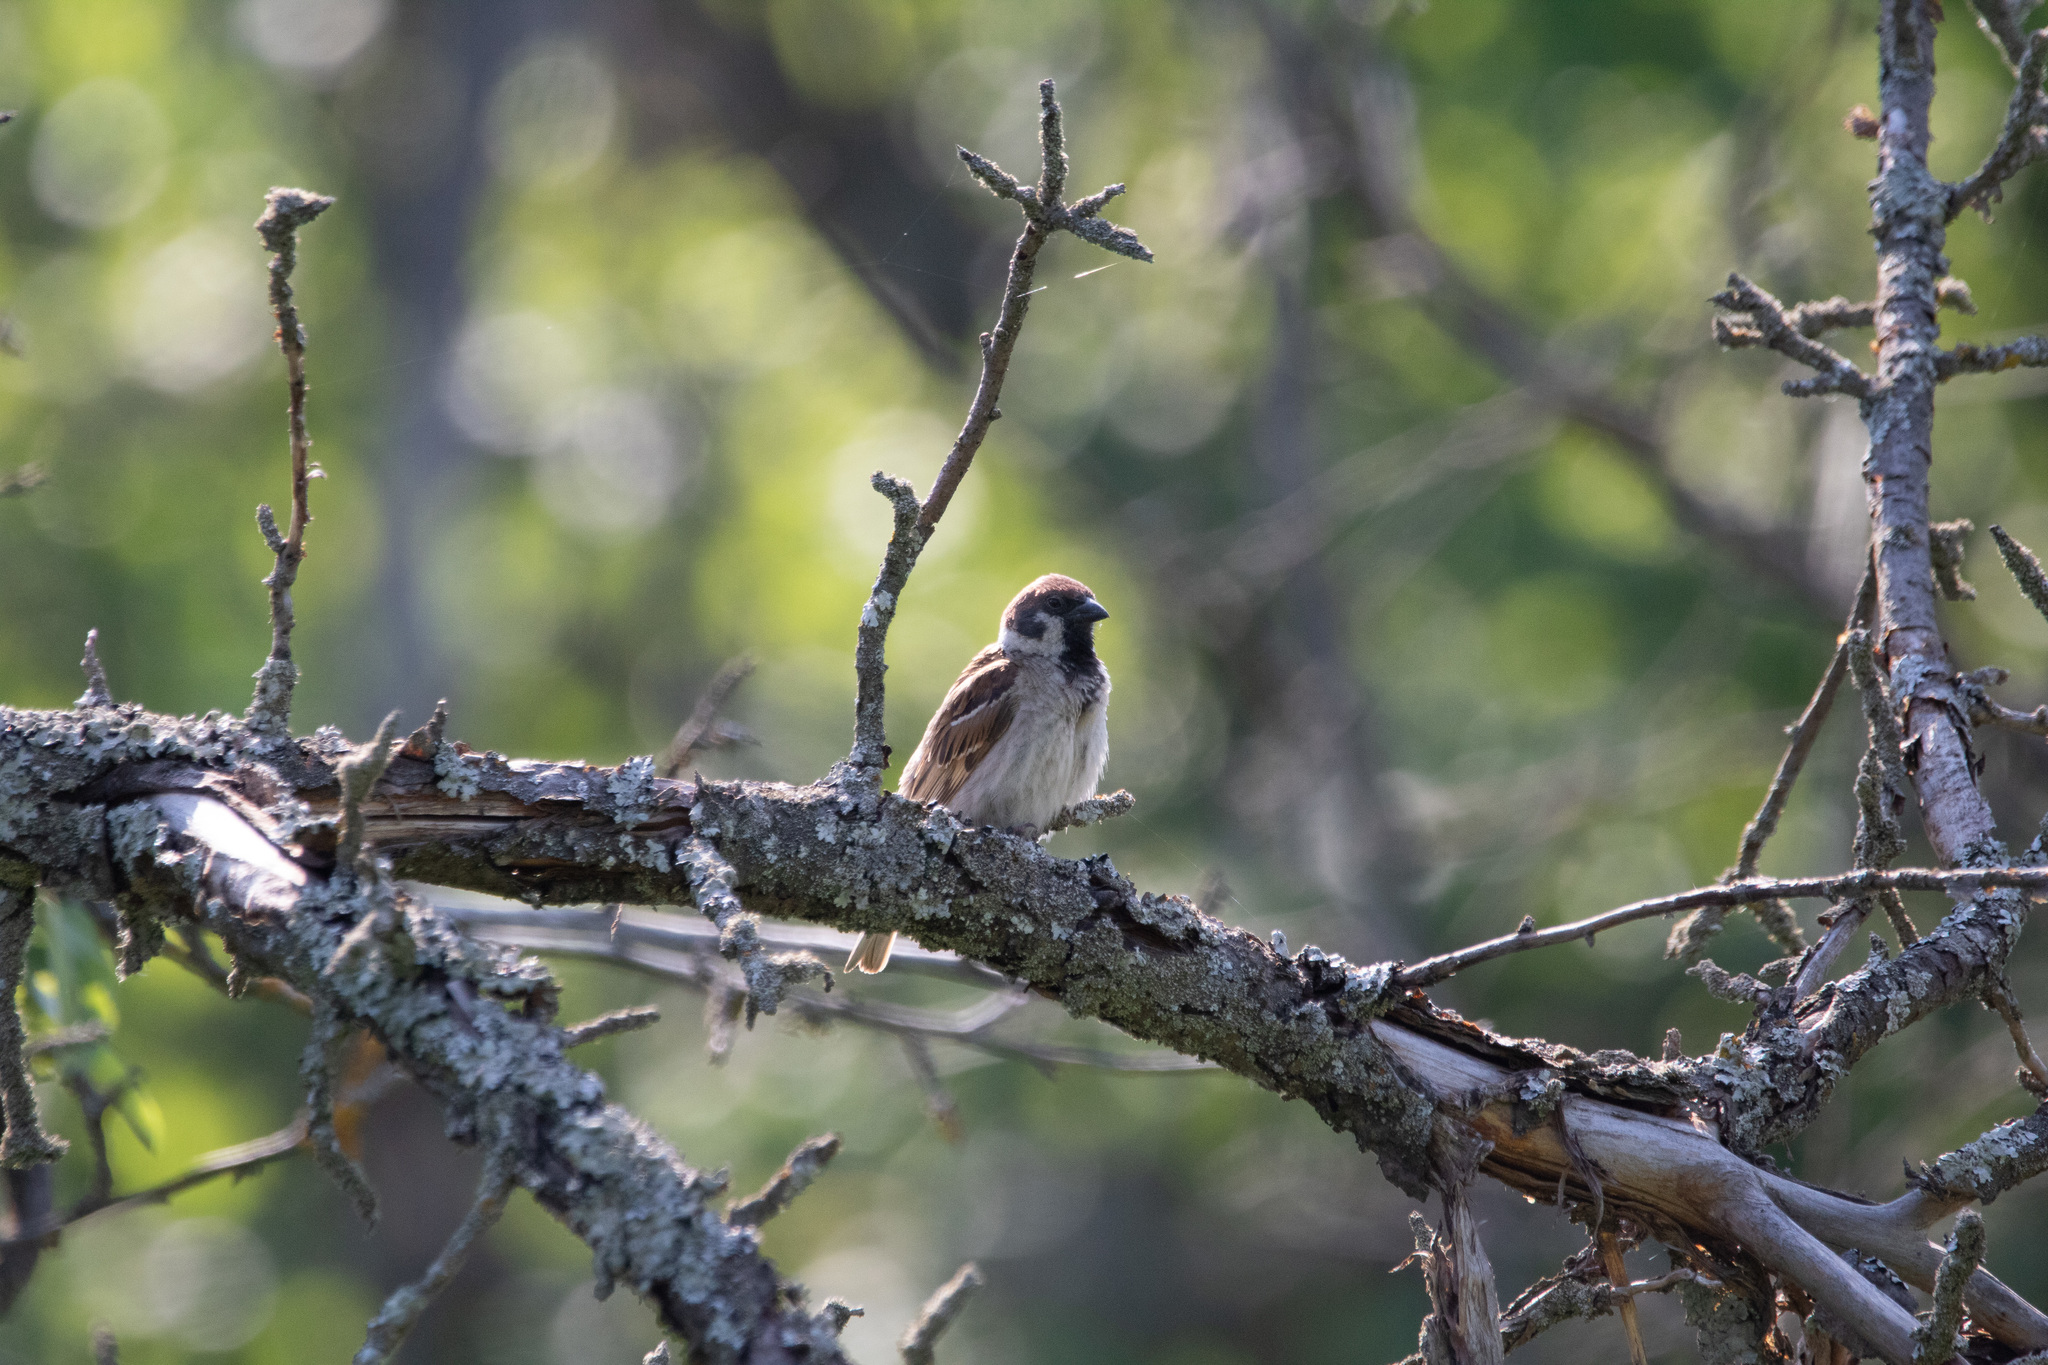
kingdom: Animalia
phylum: Chordata
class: Aves
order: Passeriformes
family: Passeridae
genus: Passer
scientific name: Passer montanus
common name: Eurasian tree sparrow
